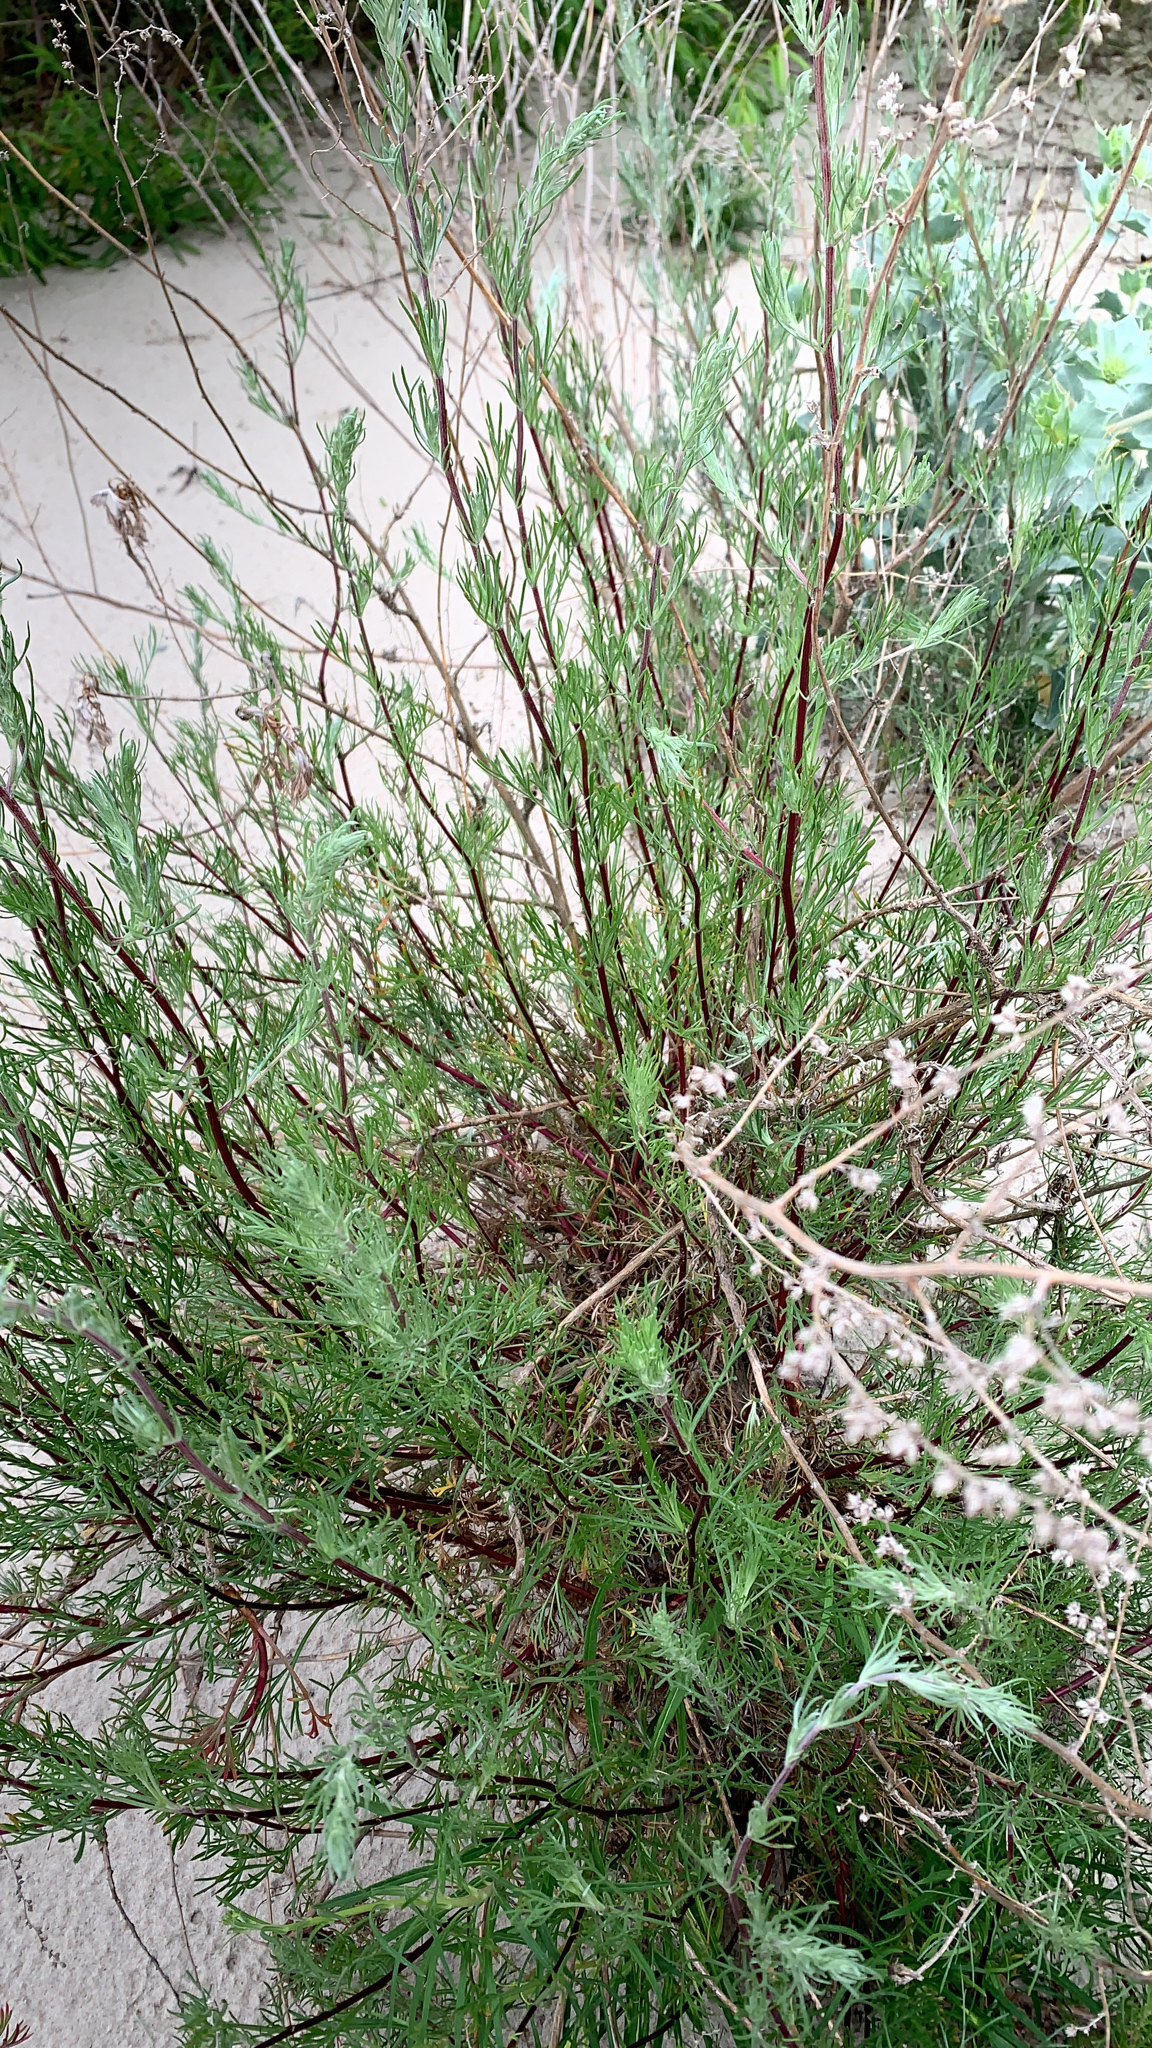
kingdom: Plantae
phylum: Tracheophyta
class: Magnoliopsida
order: Asterales
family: Asteraceae
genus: Artemisia
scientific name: Artemisia campestris
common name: Field wormwood
